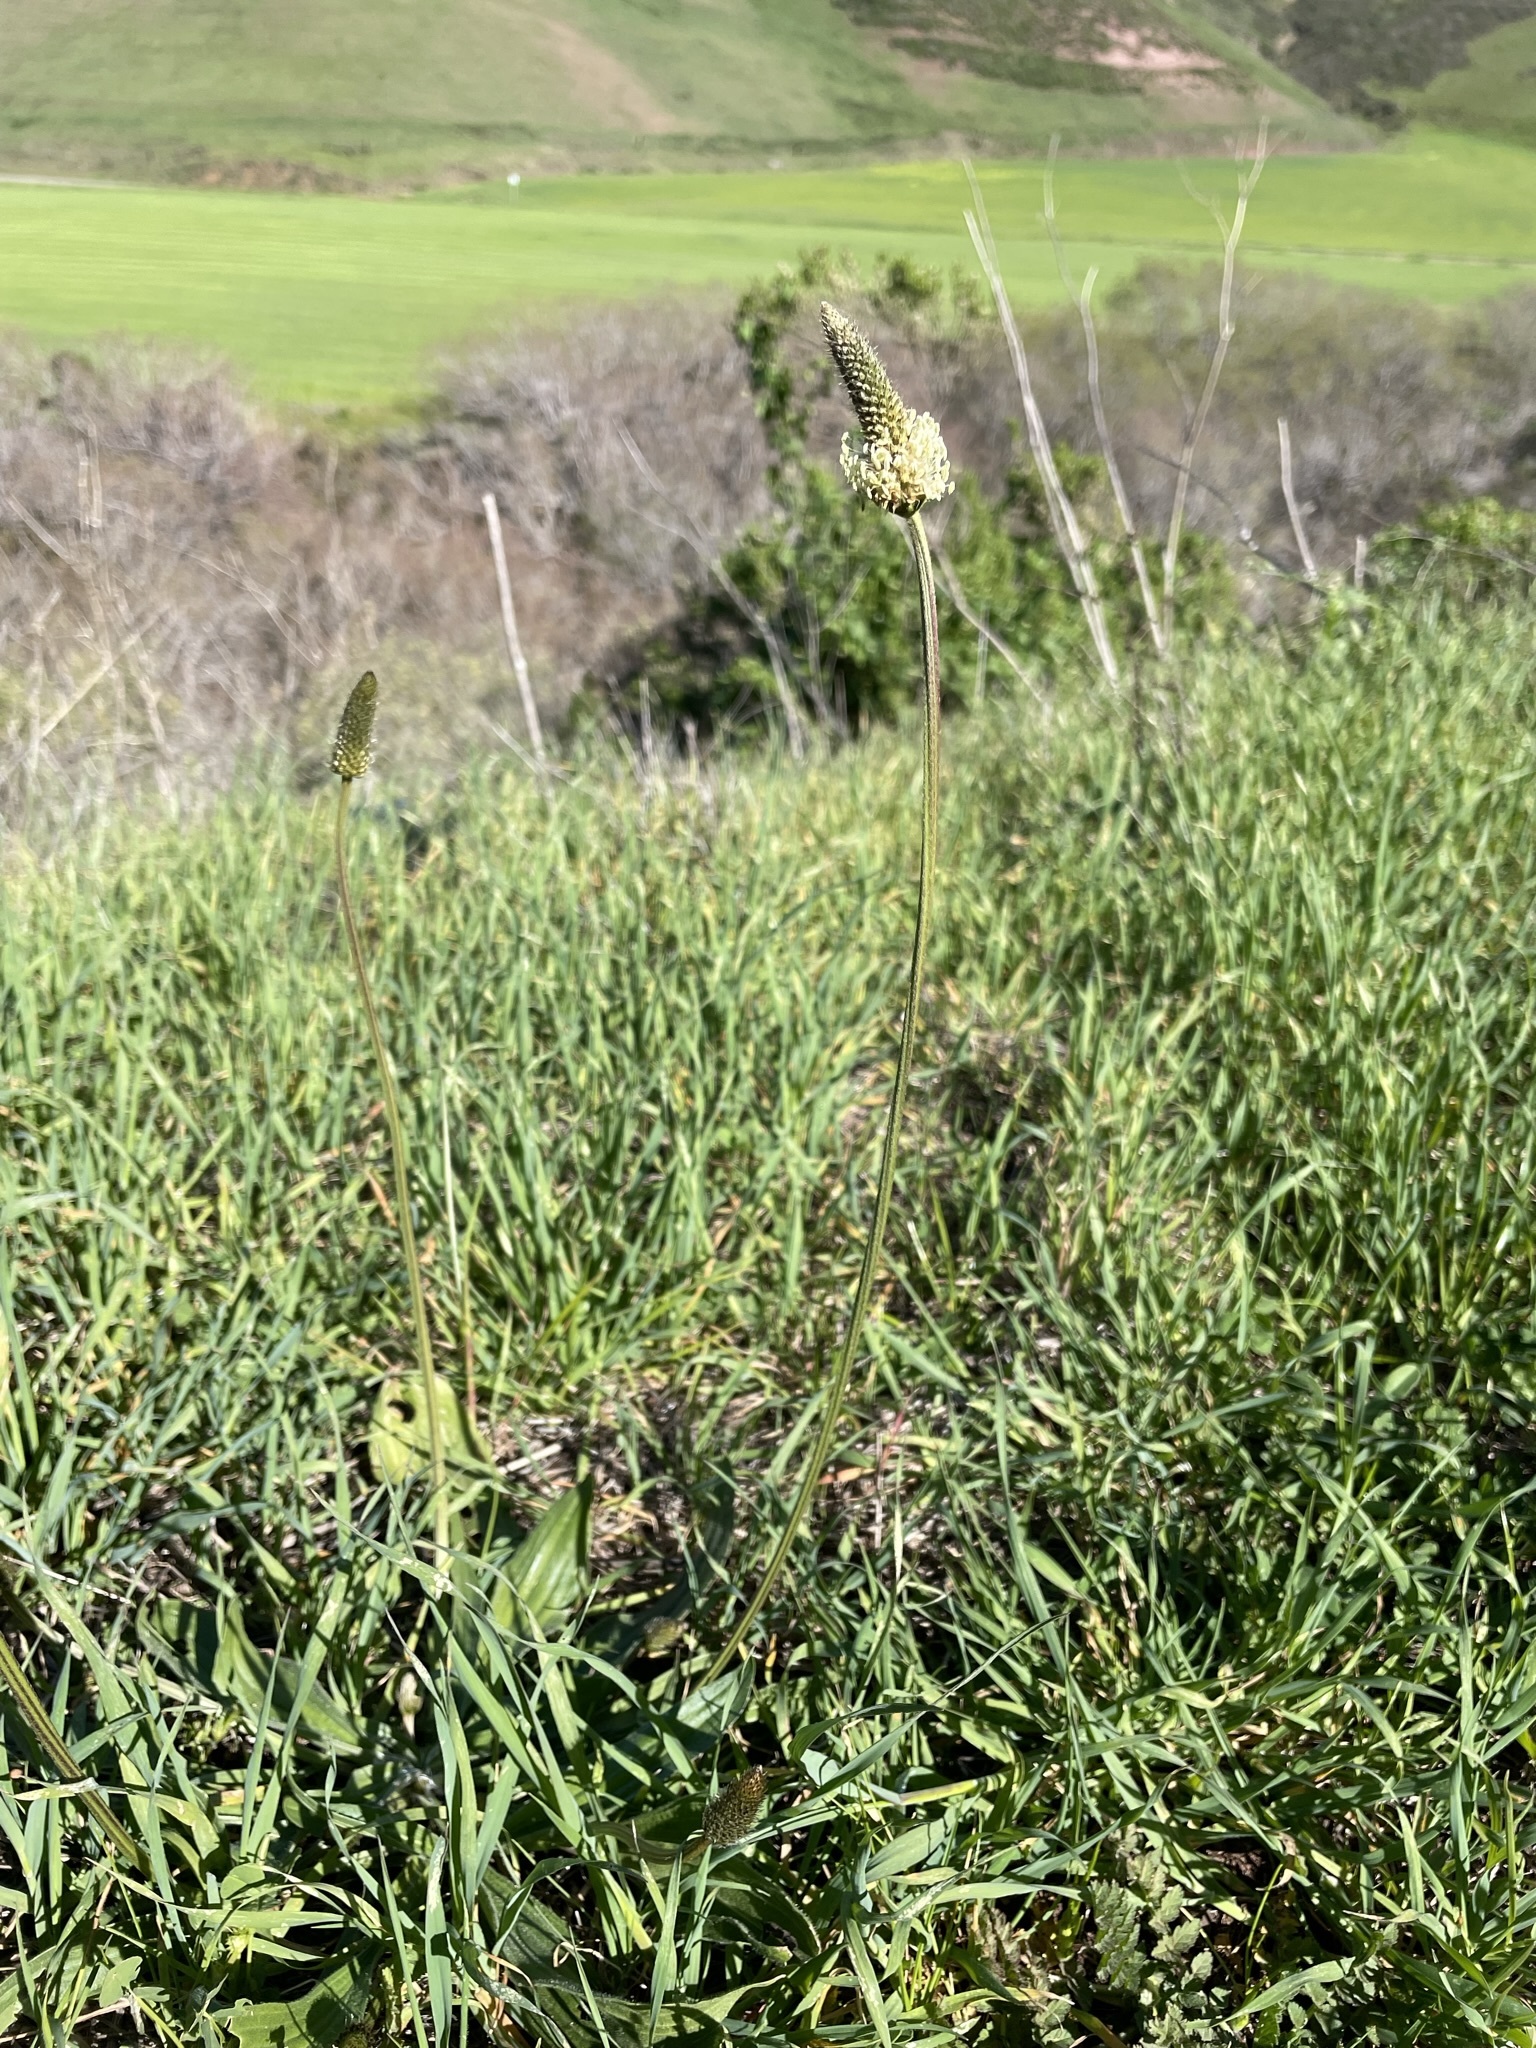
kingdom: Plantae
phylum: Tracheophyta
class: Magnoliopsida
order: Lamiales
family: Plantaginaceae
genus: Plantago
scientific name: Plantago lanceolata
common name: Ribwort plantain
